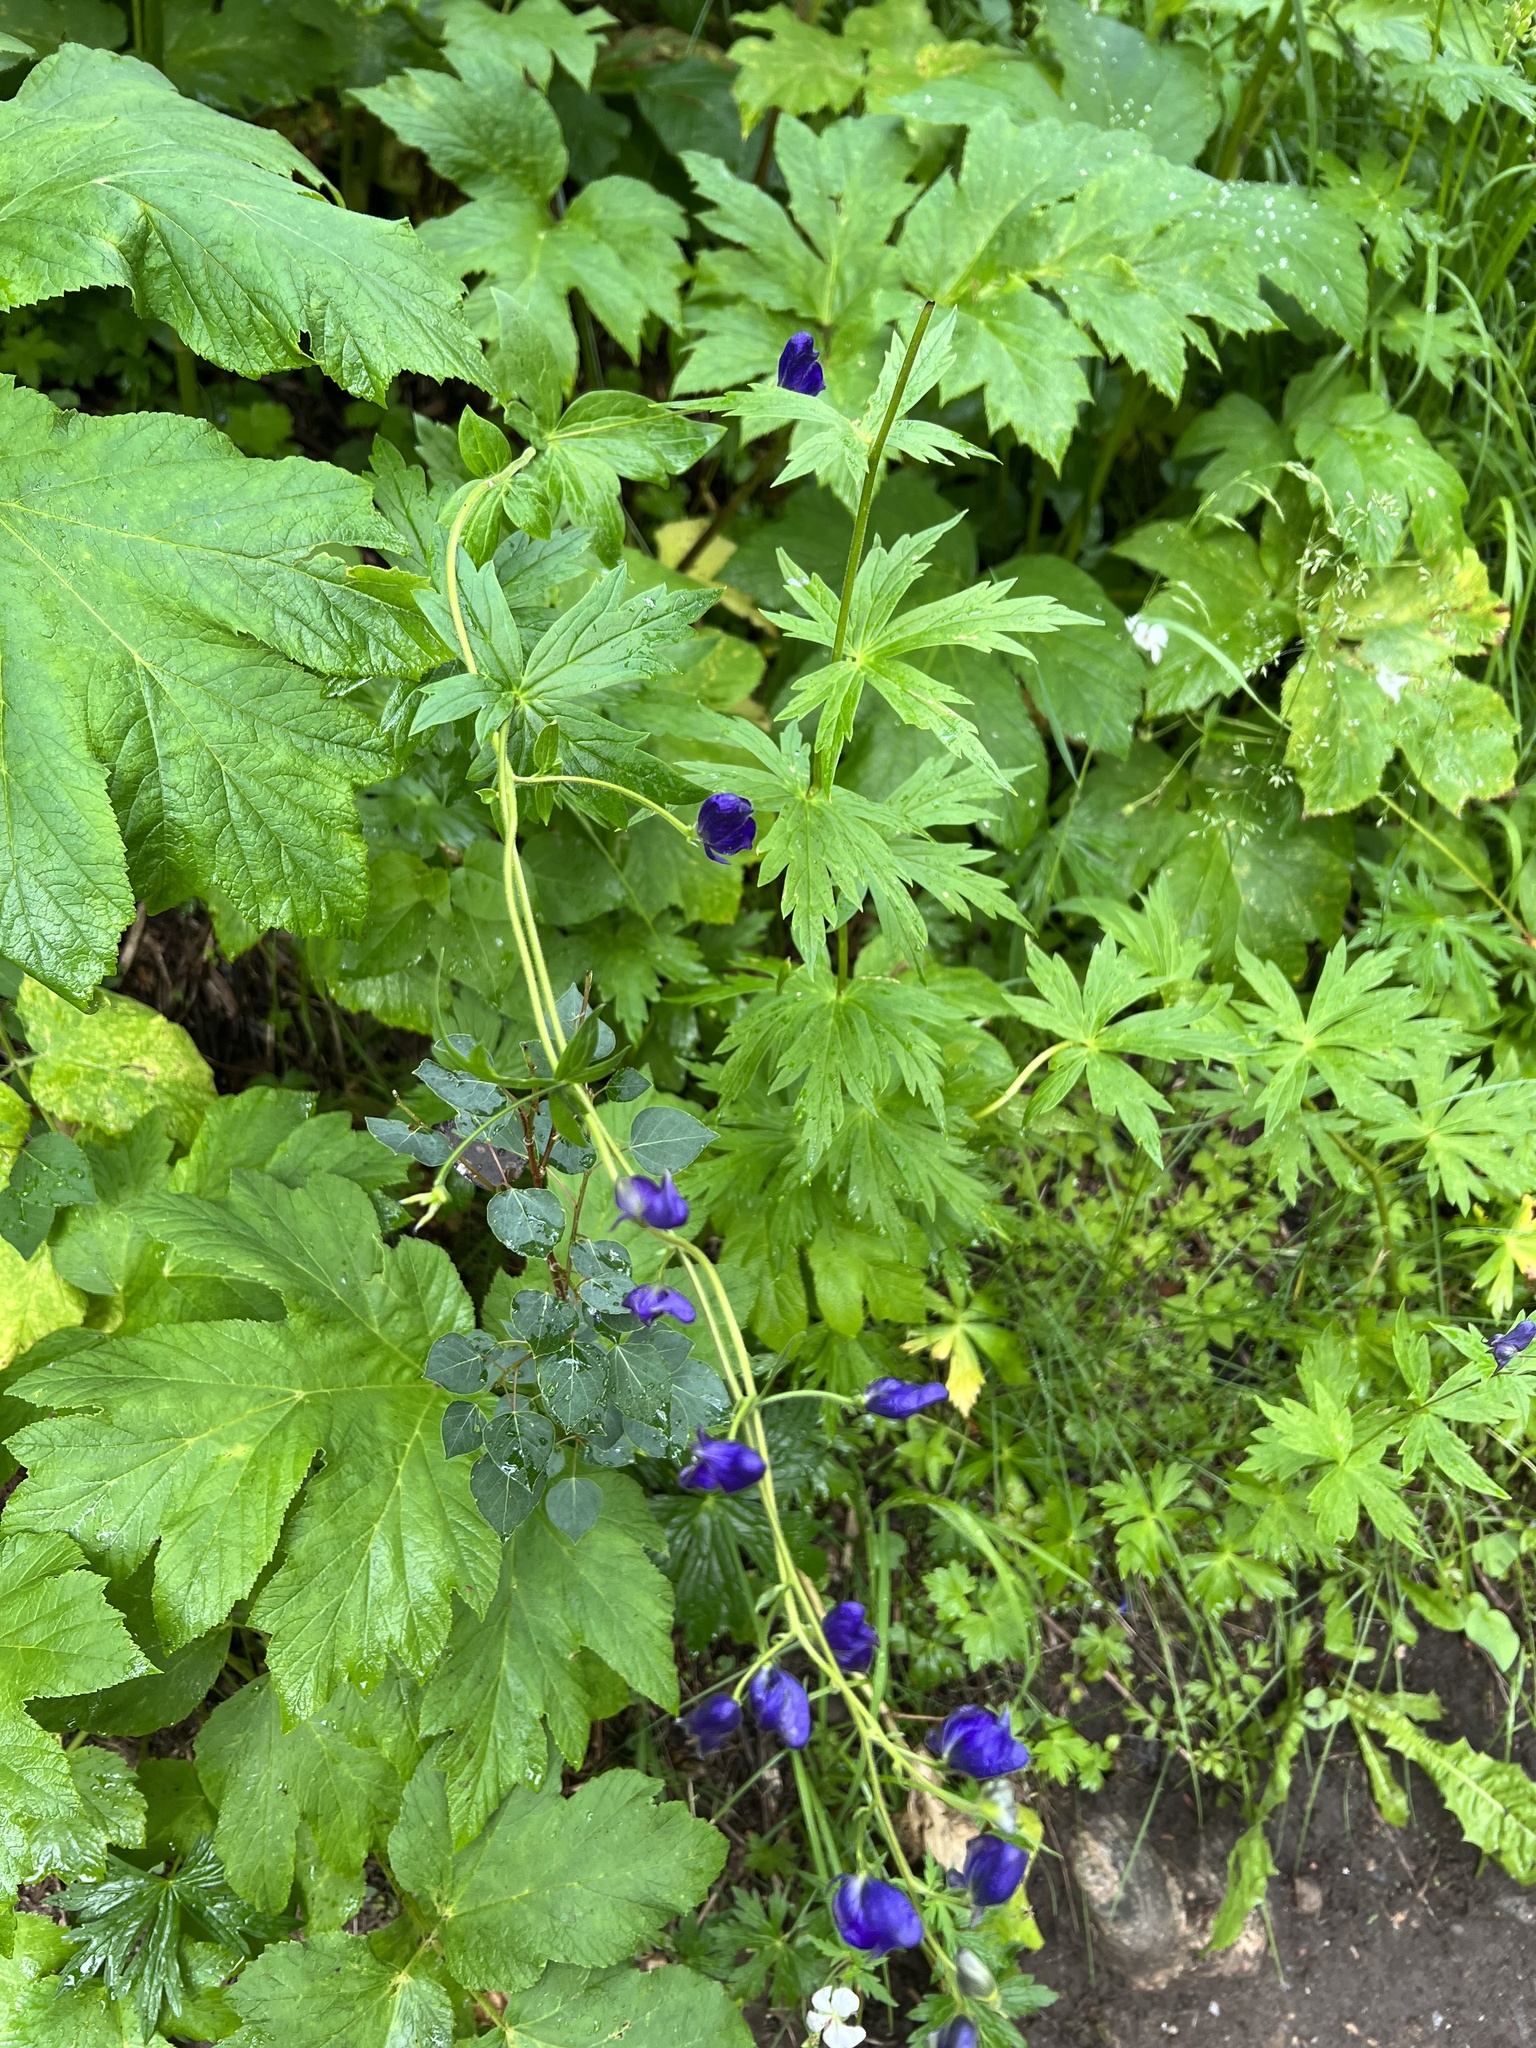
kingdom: Plantae
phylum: Tracheophyta
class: Magnoliopsida
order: Ranunculales
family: Ranunculaceae
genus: Aconitum
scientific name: Aconitum columbianum
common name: Columbia aconite
